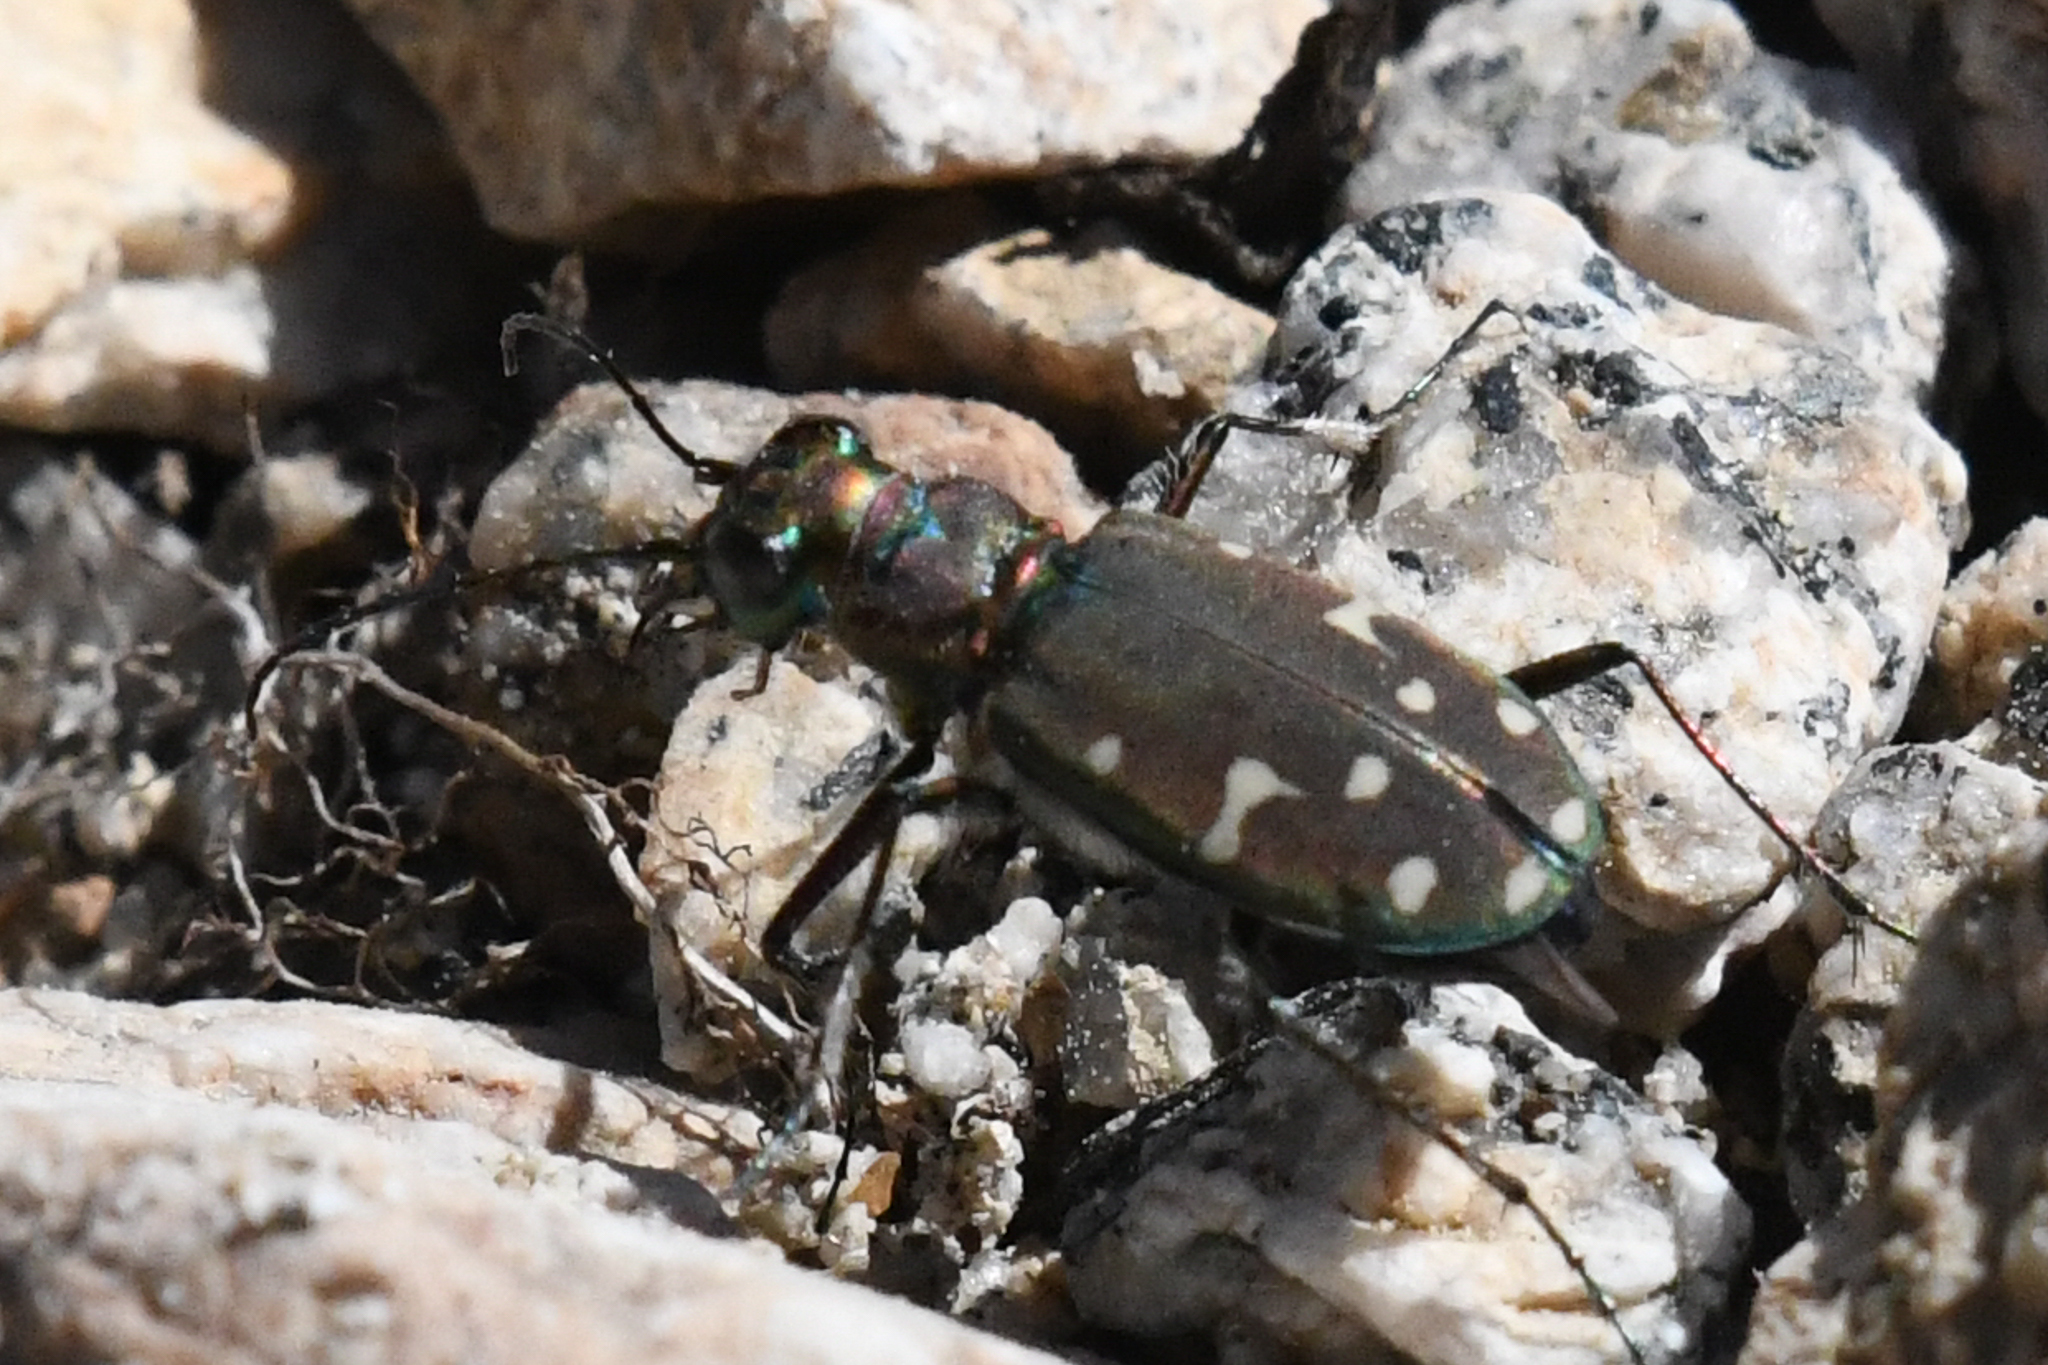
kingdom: Animalia
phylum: Arthropoda
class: Insecta
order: Coleoptera
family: Carabidae
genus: Cicindela
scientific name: Cicindela oregona
